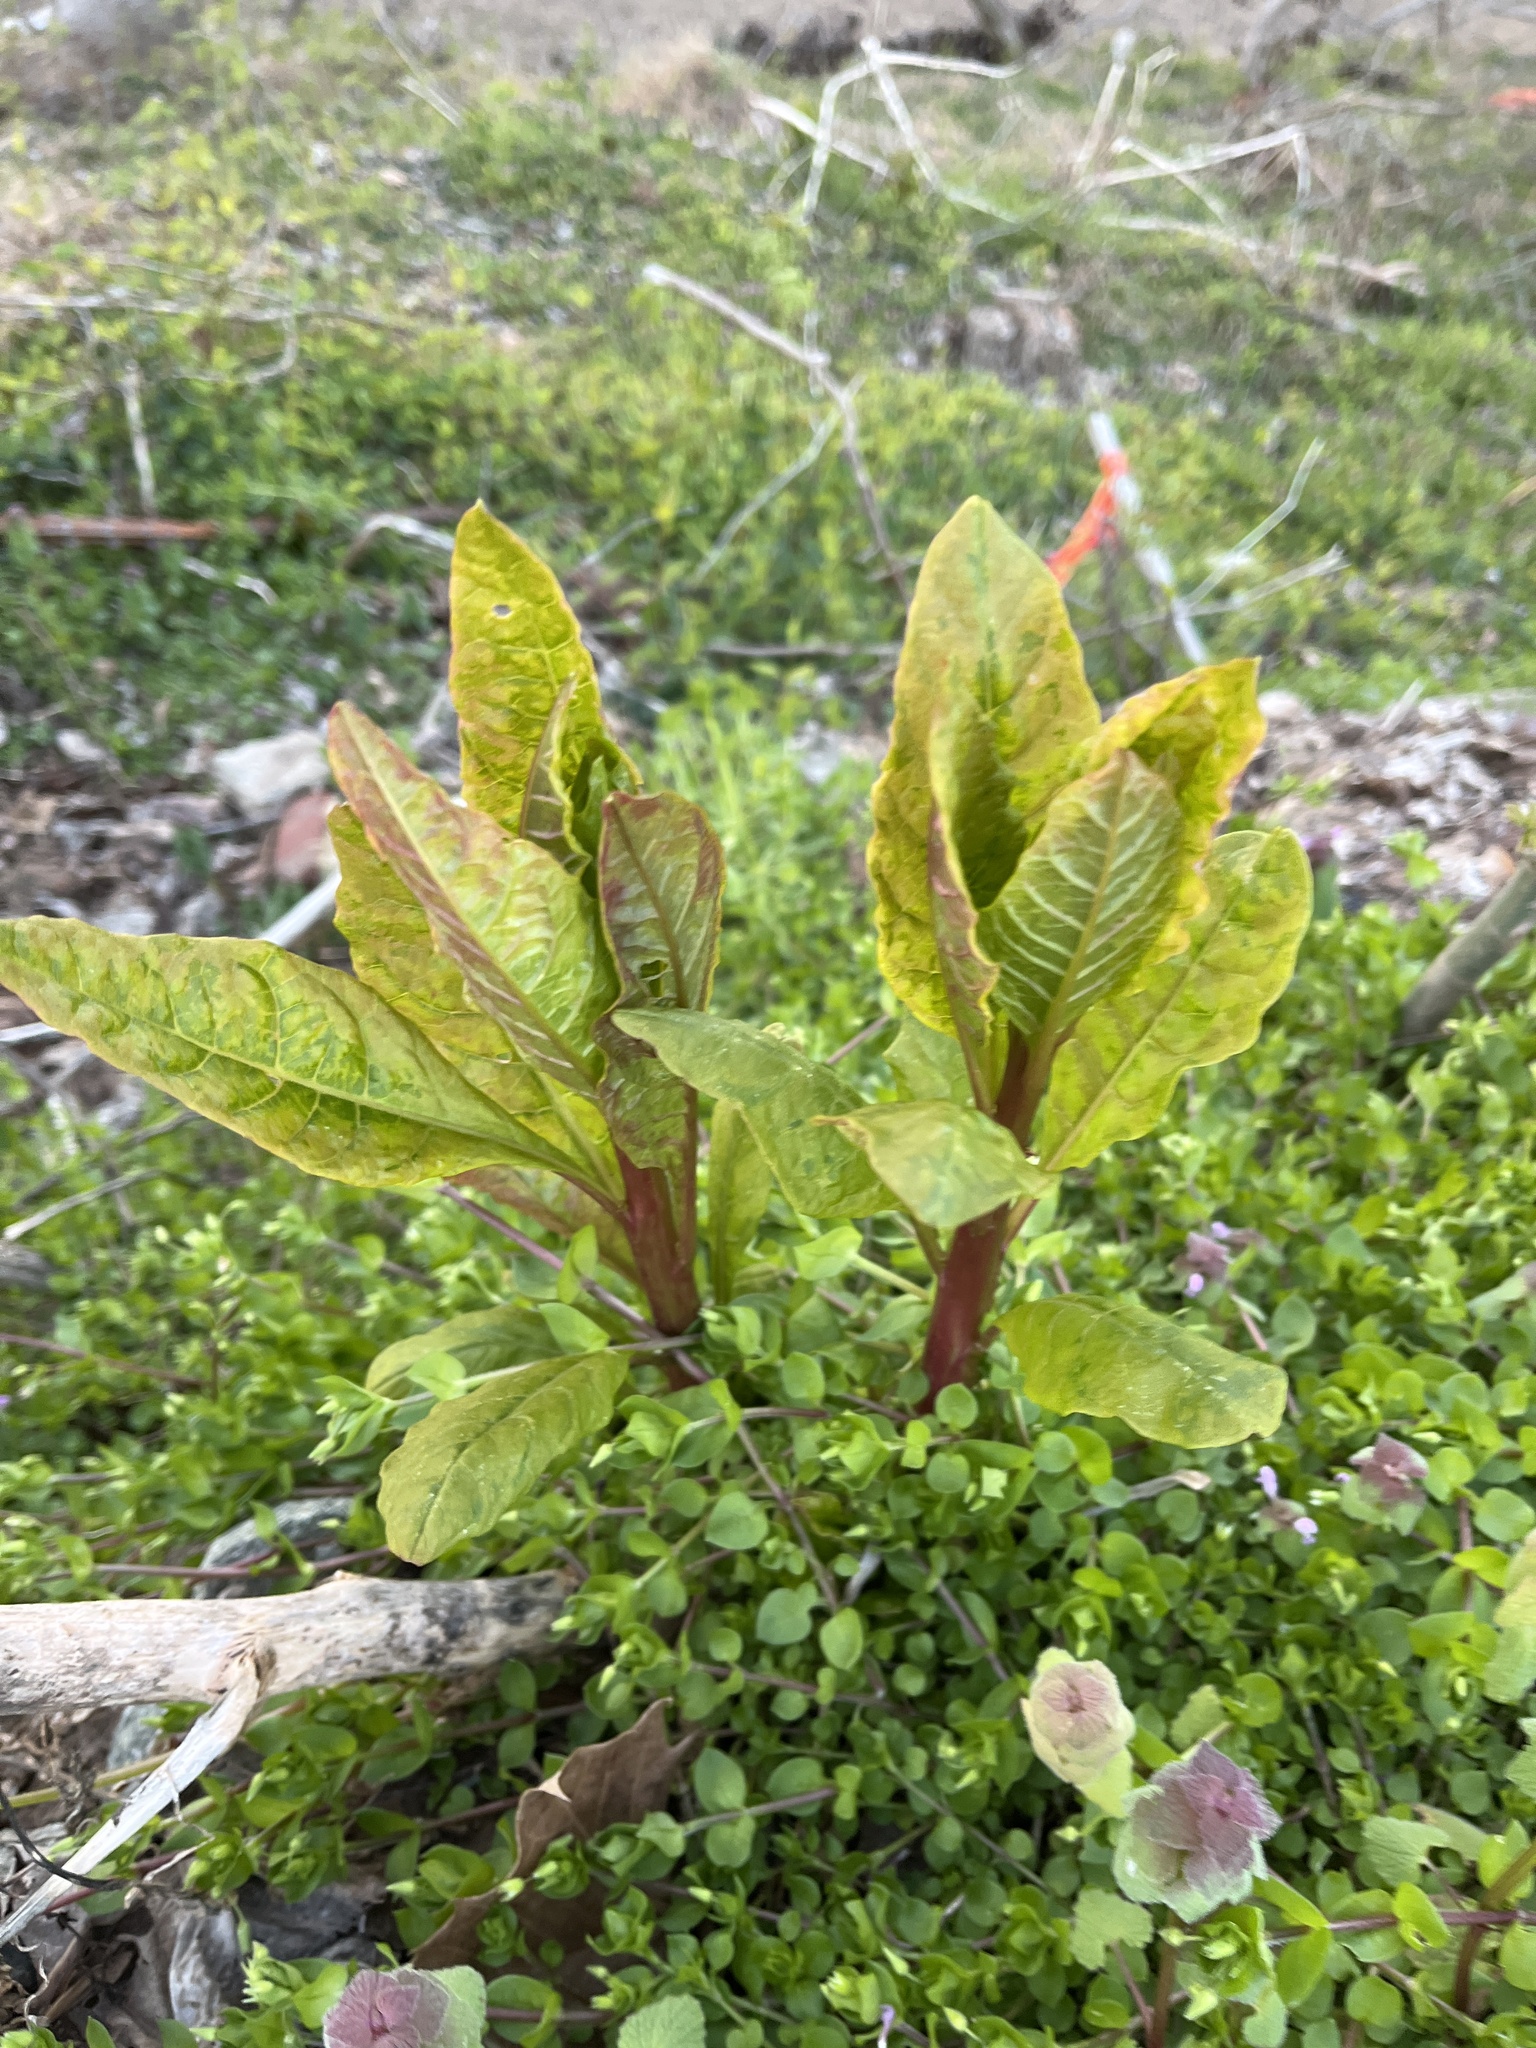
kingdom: Plantae
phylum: Tracheophyta
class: Magnoliopsida
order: Caryophyllales
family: Phytolaccaceae
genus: Phytolacca
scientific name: Phytolacca americana
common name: American pokeweed
